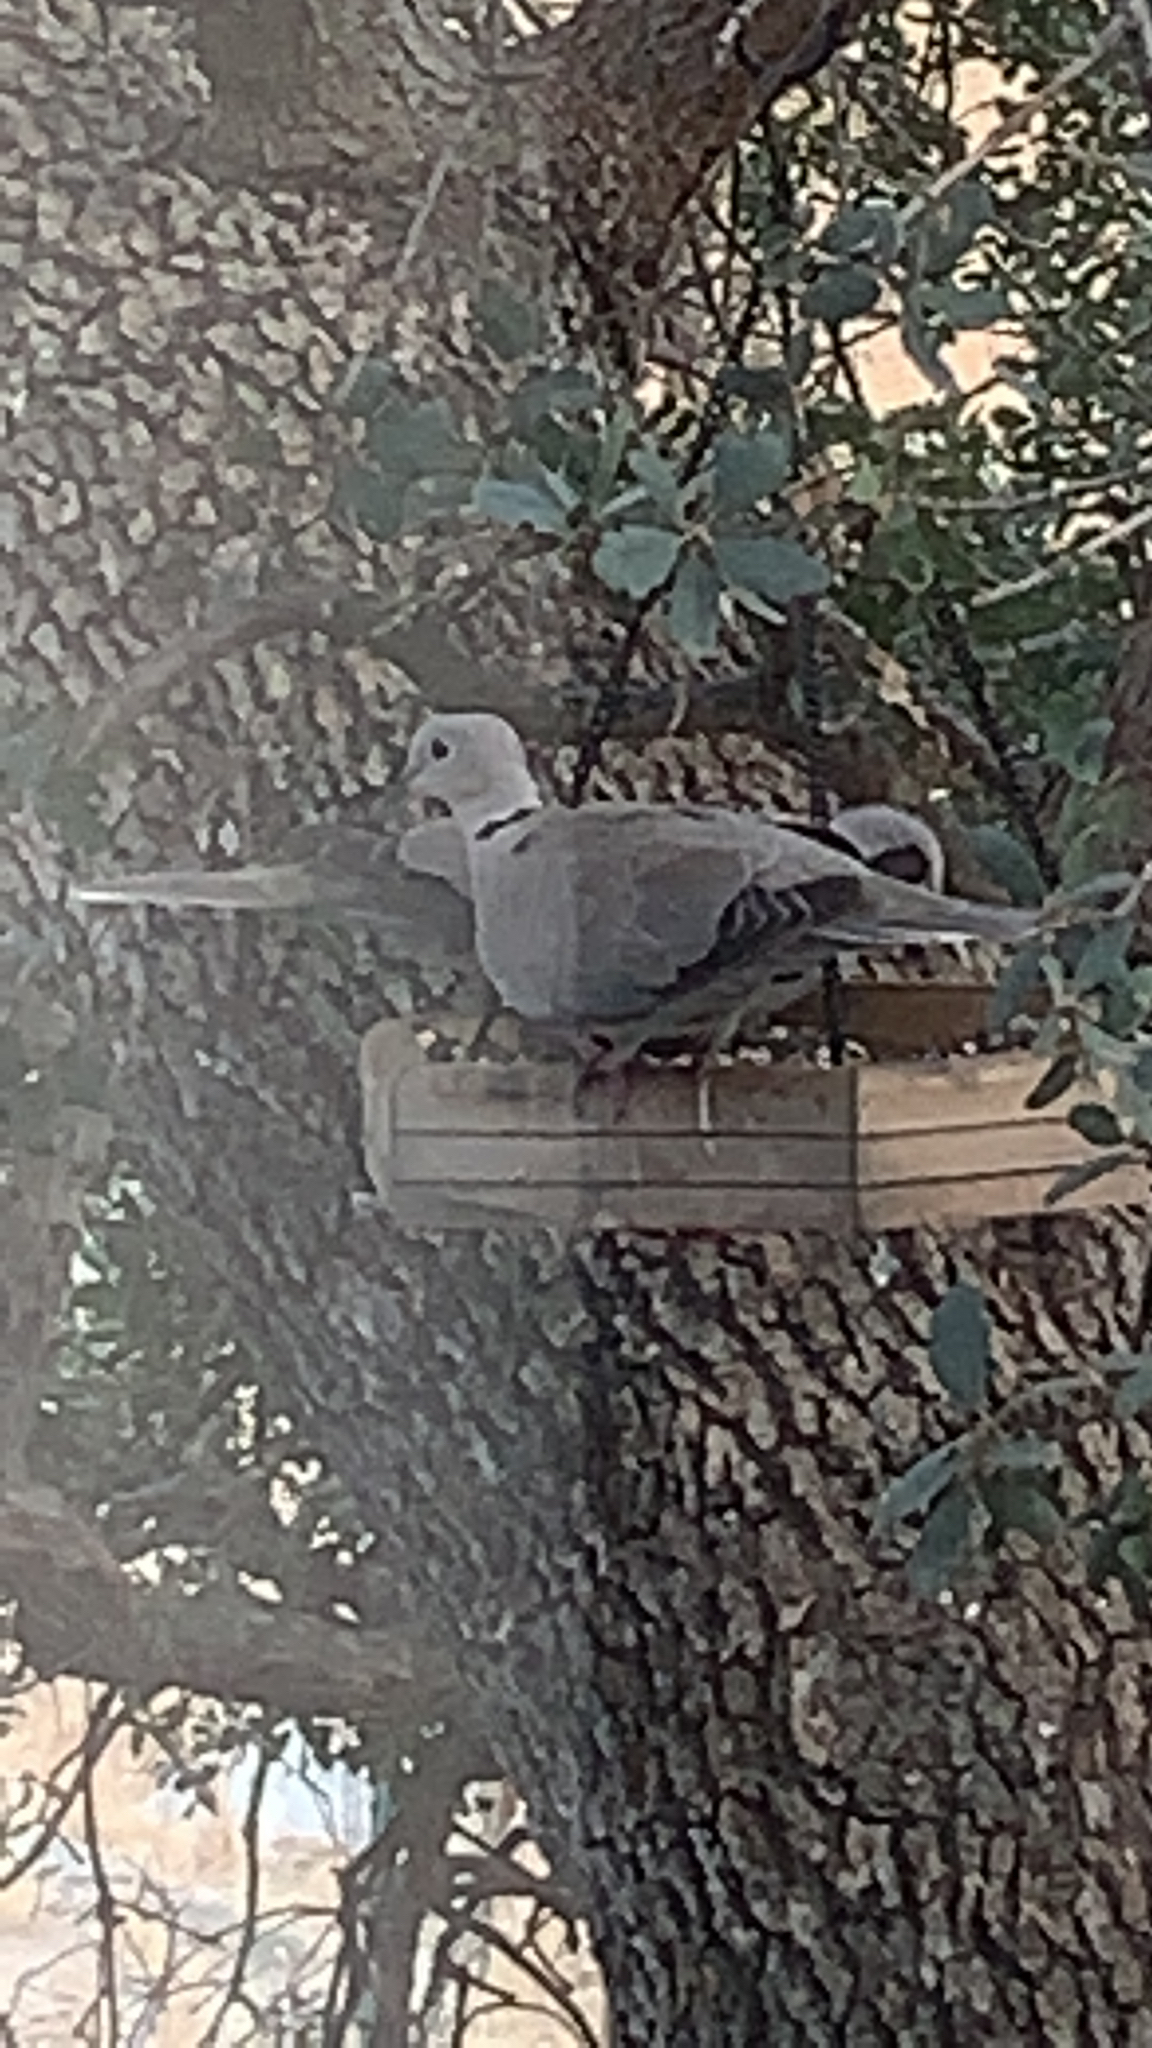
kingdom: Animalia
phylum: Chordata
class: Aves
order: Columbiformes
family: Columbidae
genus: Streptopelia
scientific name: Streptopelia decaocto
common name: Eurasian collared dove
